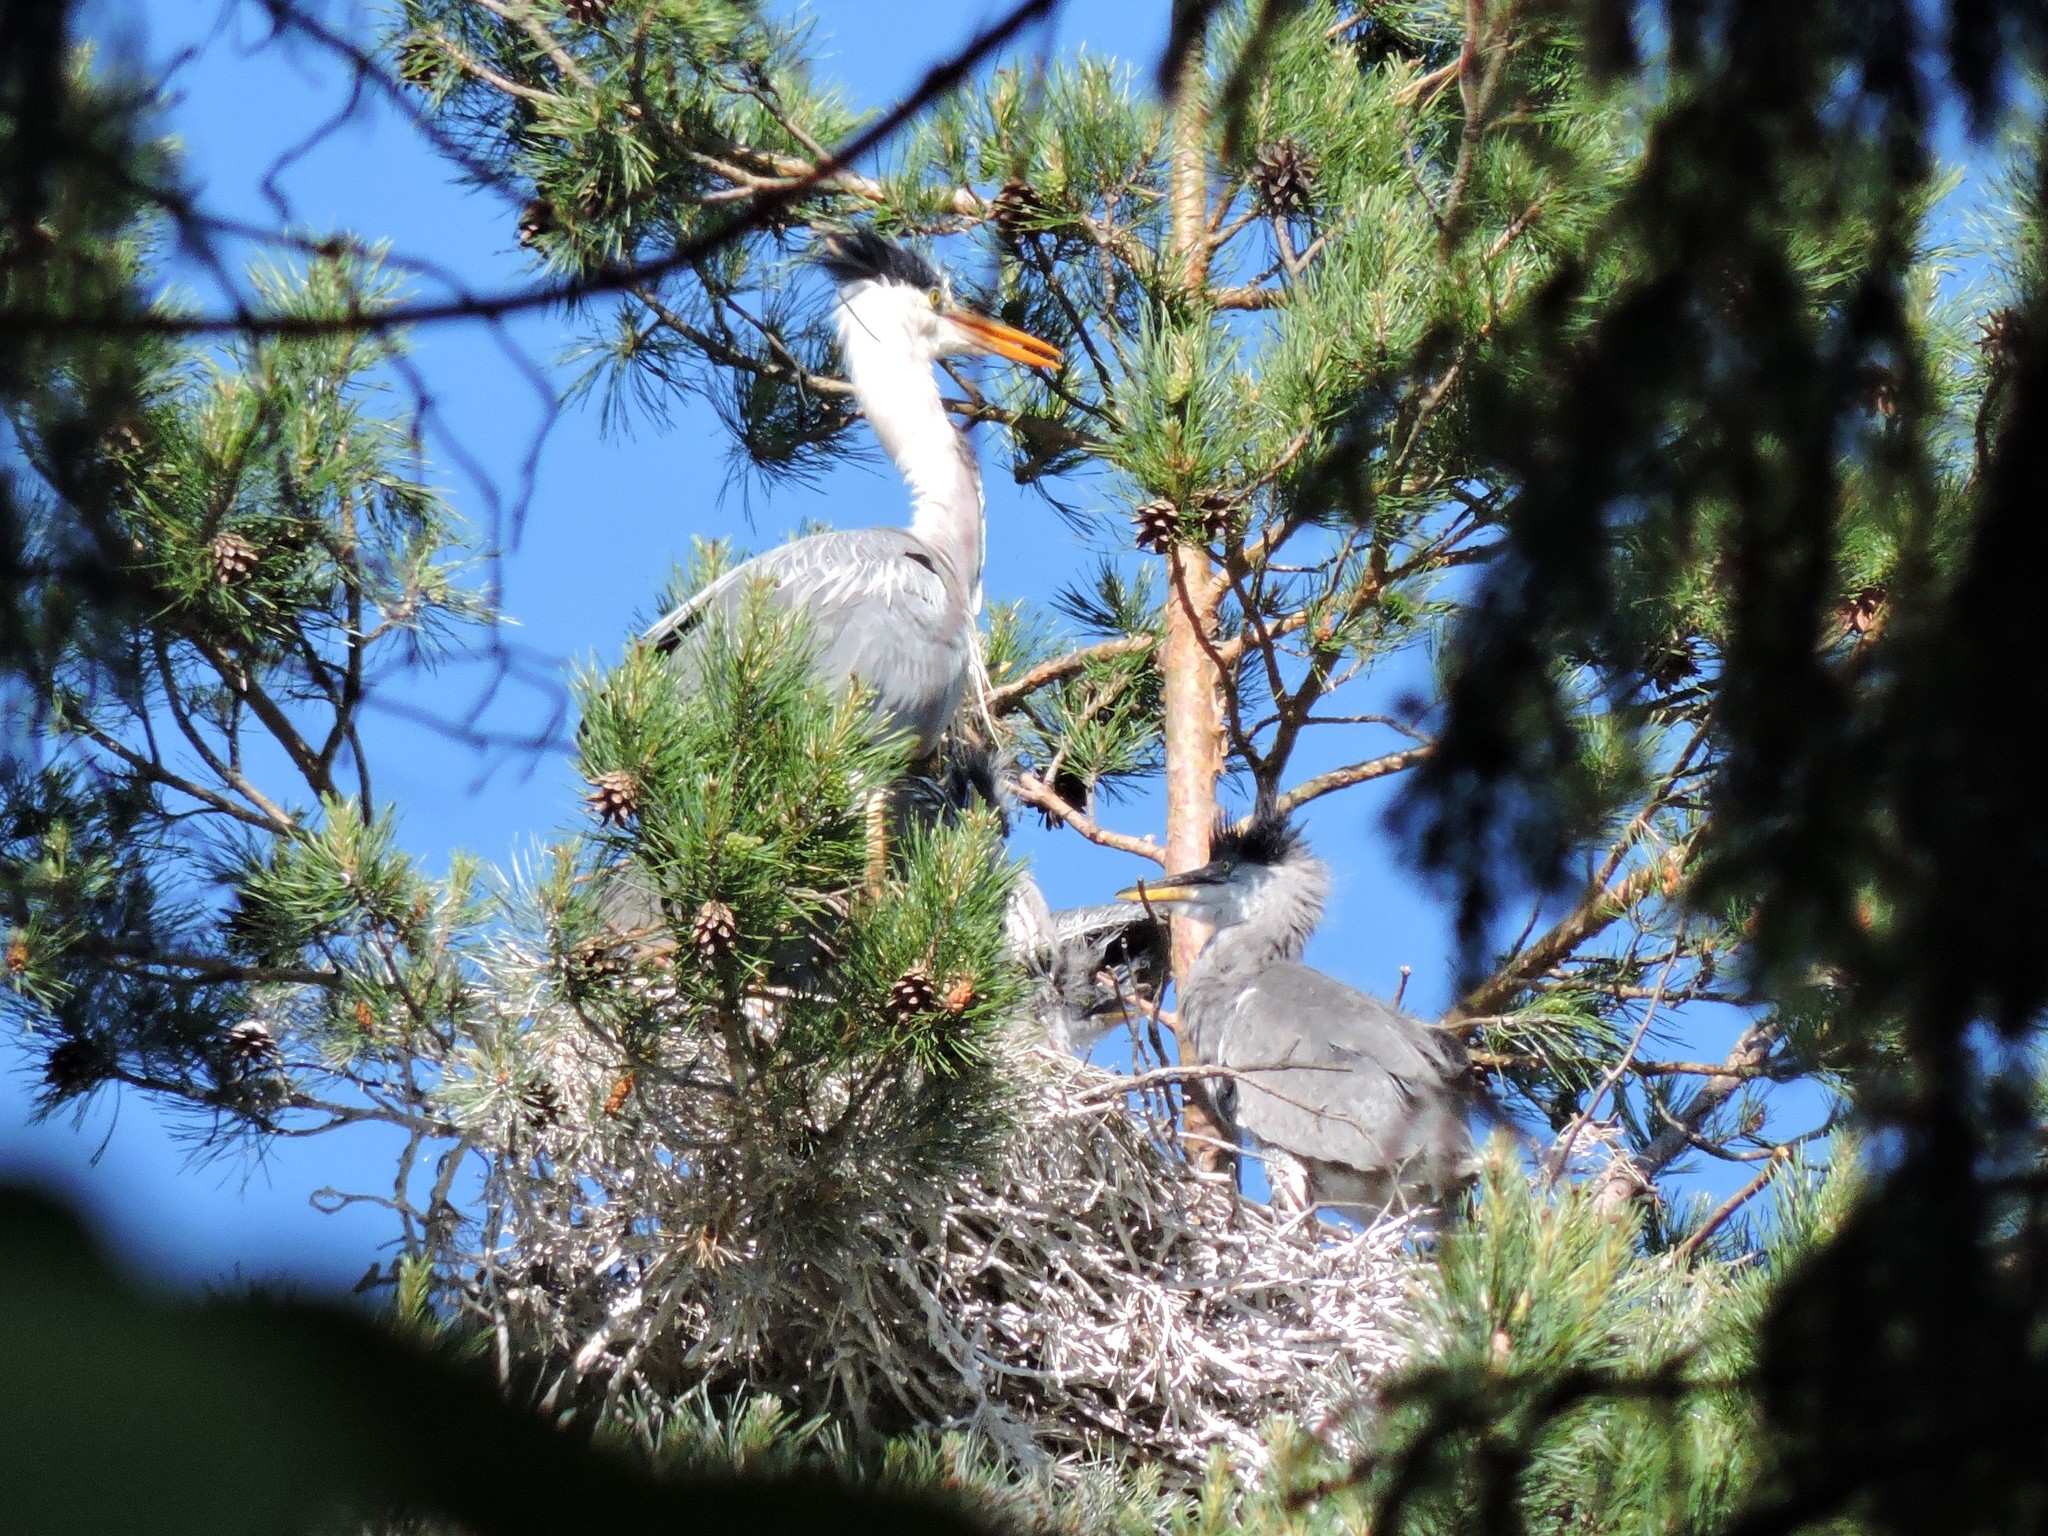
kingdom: Animalia
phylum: Chordata
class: Aves
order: Pelecaniformes
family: Ardeidae
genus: Ardea
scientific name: Ardea cinerea
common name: Grey heron
